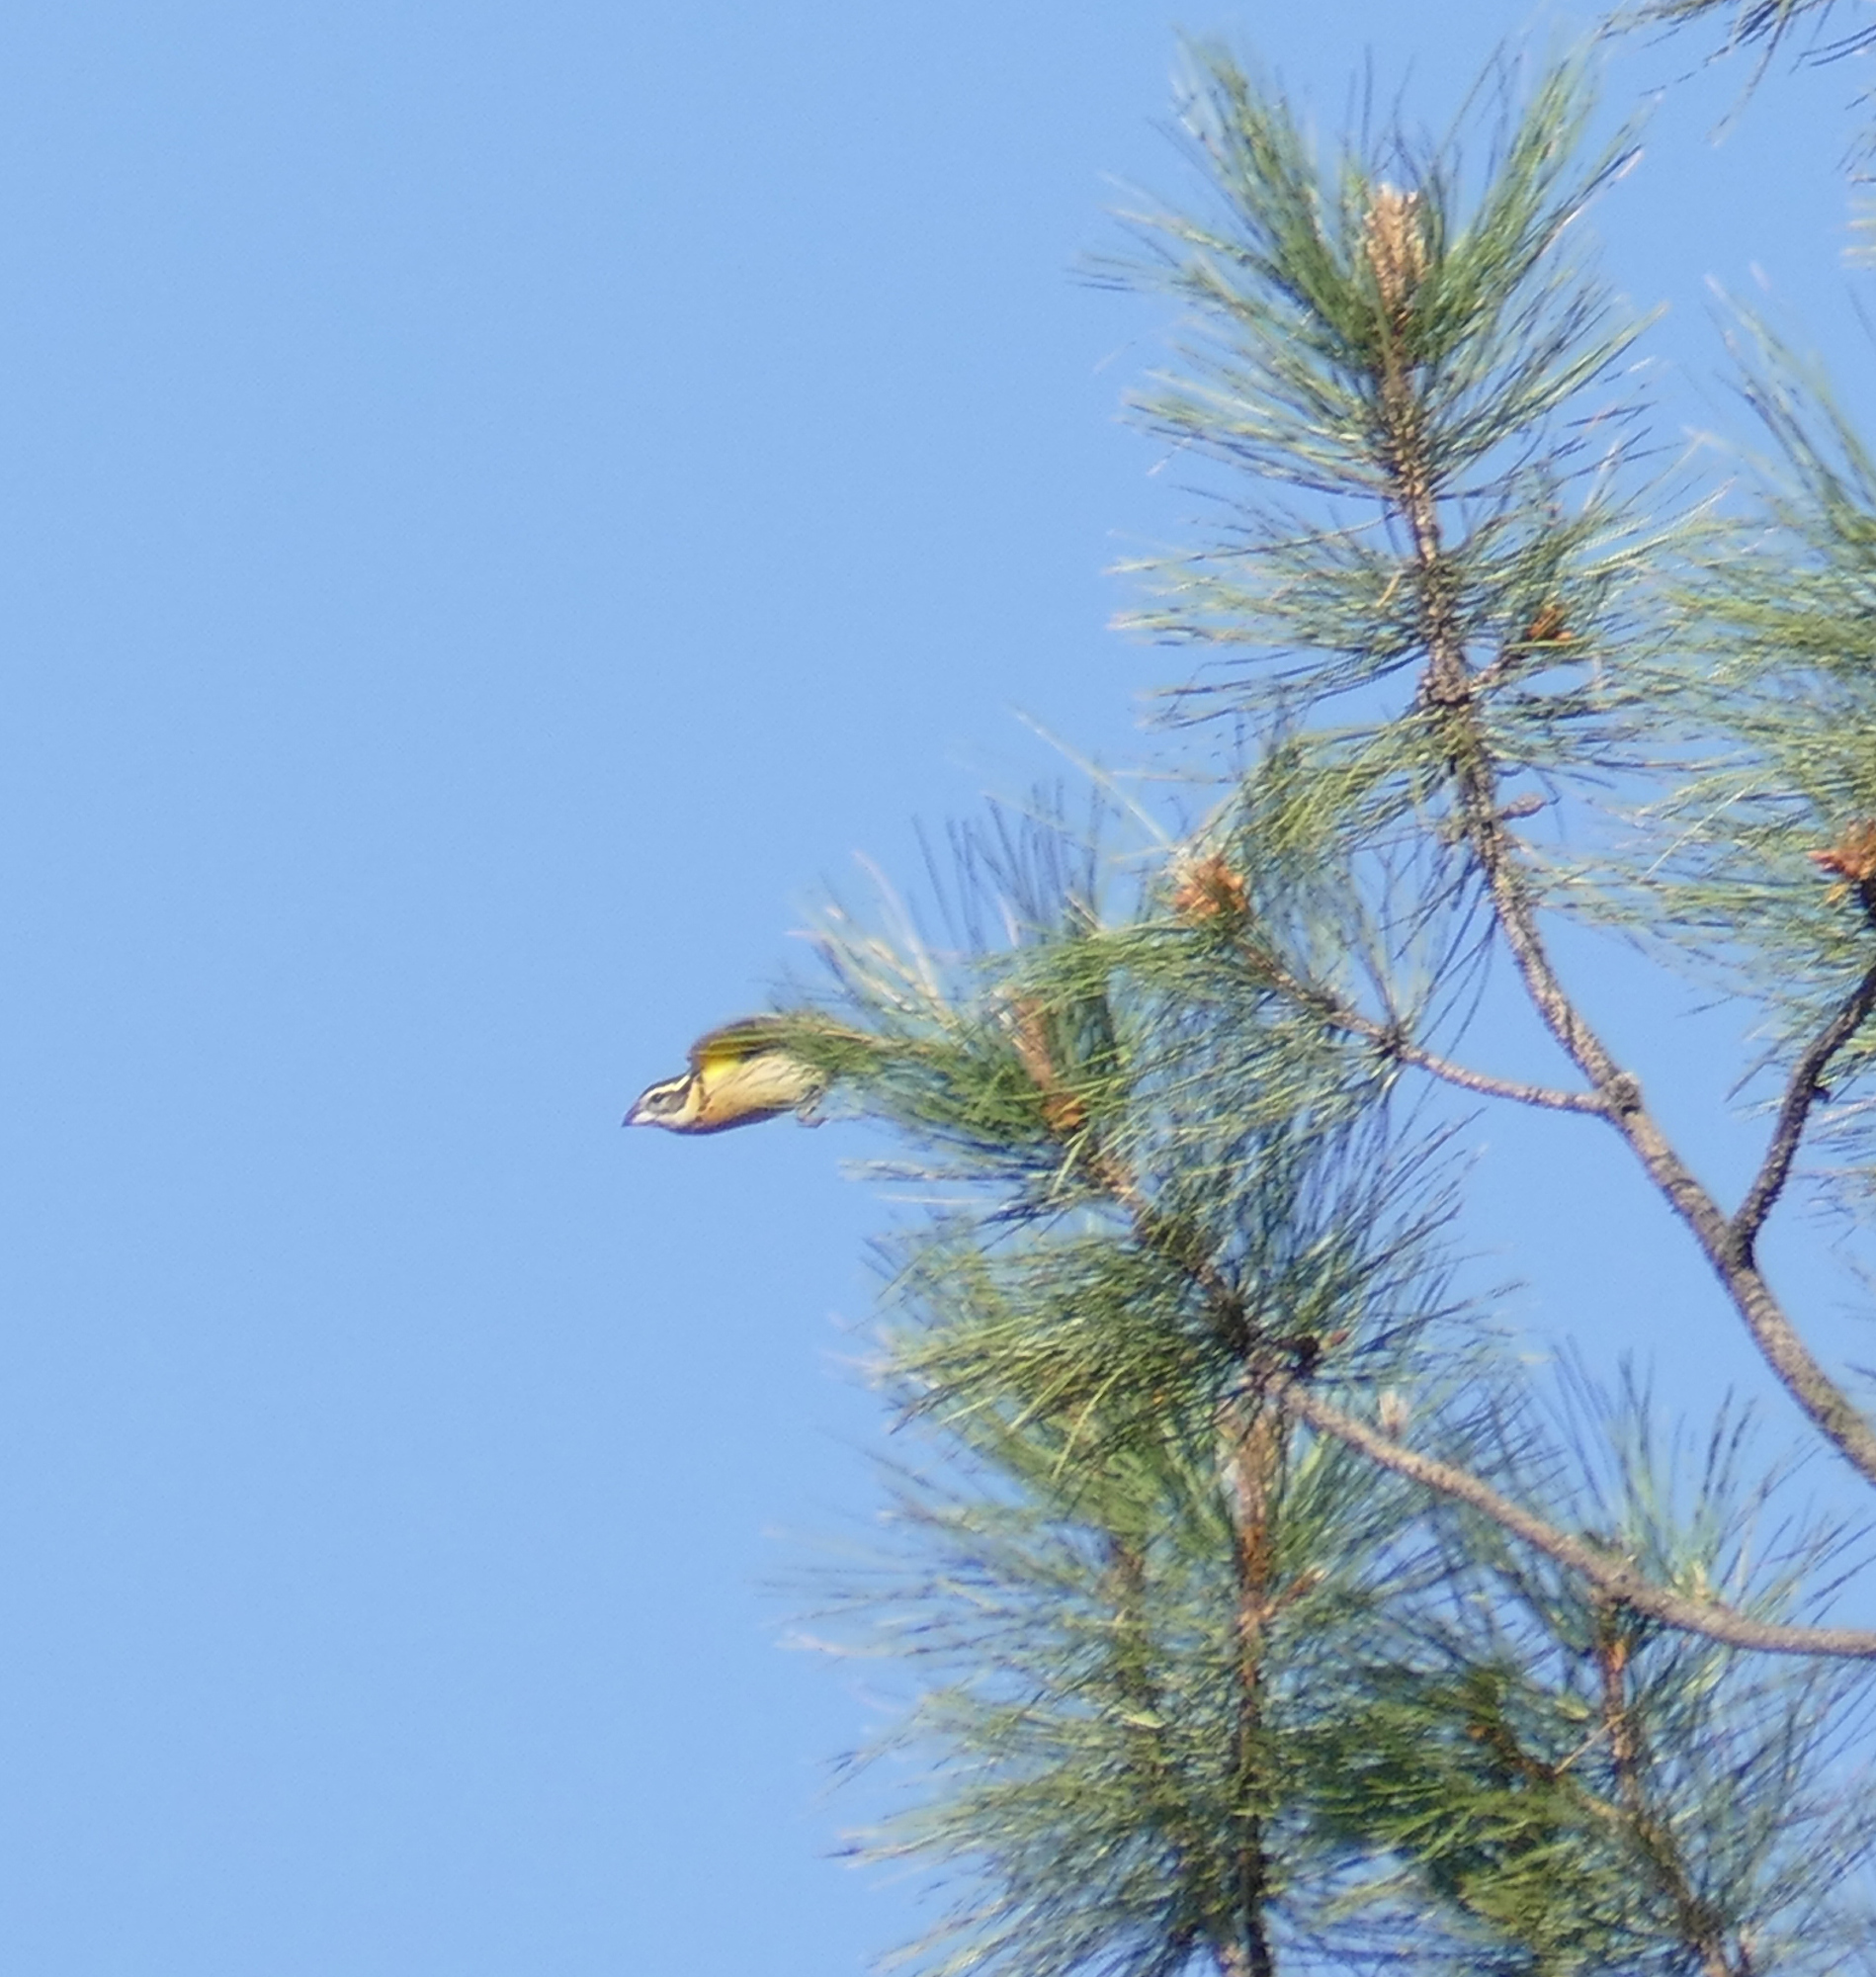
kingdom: Animalia
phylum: Chordata
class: Aves
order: Passeriformes
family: Cardinalidae
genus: Pheucticus
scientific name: Pheucticus melanocephalus
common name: Black-headed grosbeak
